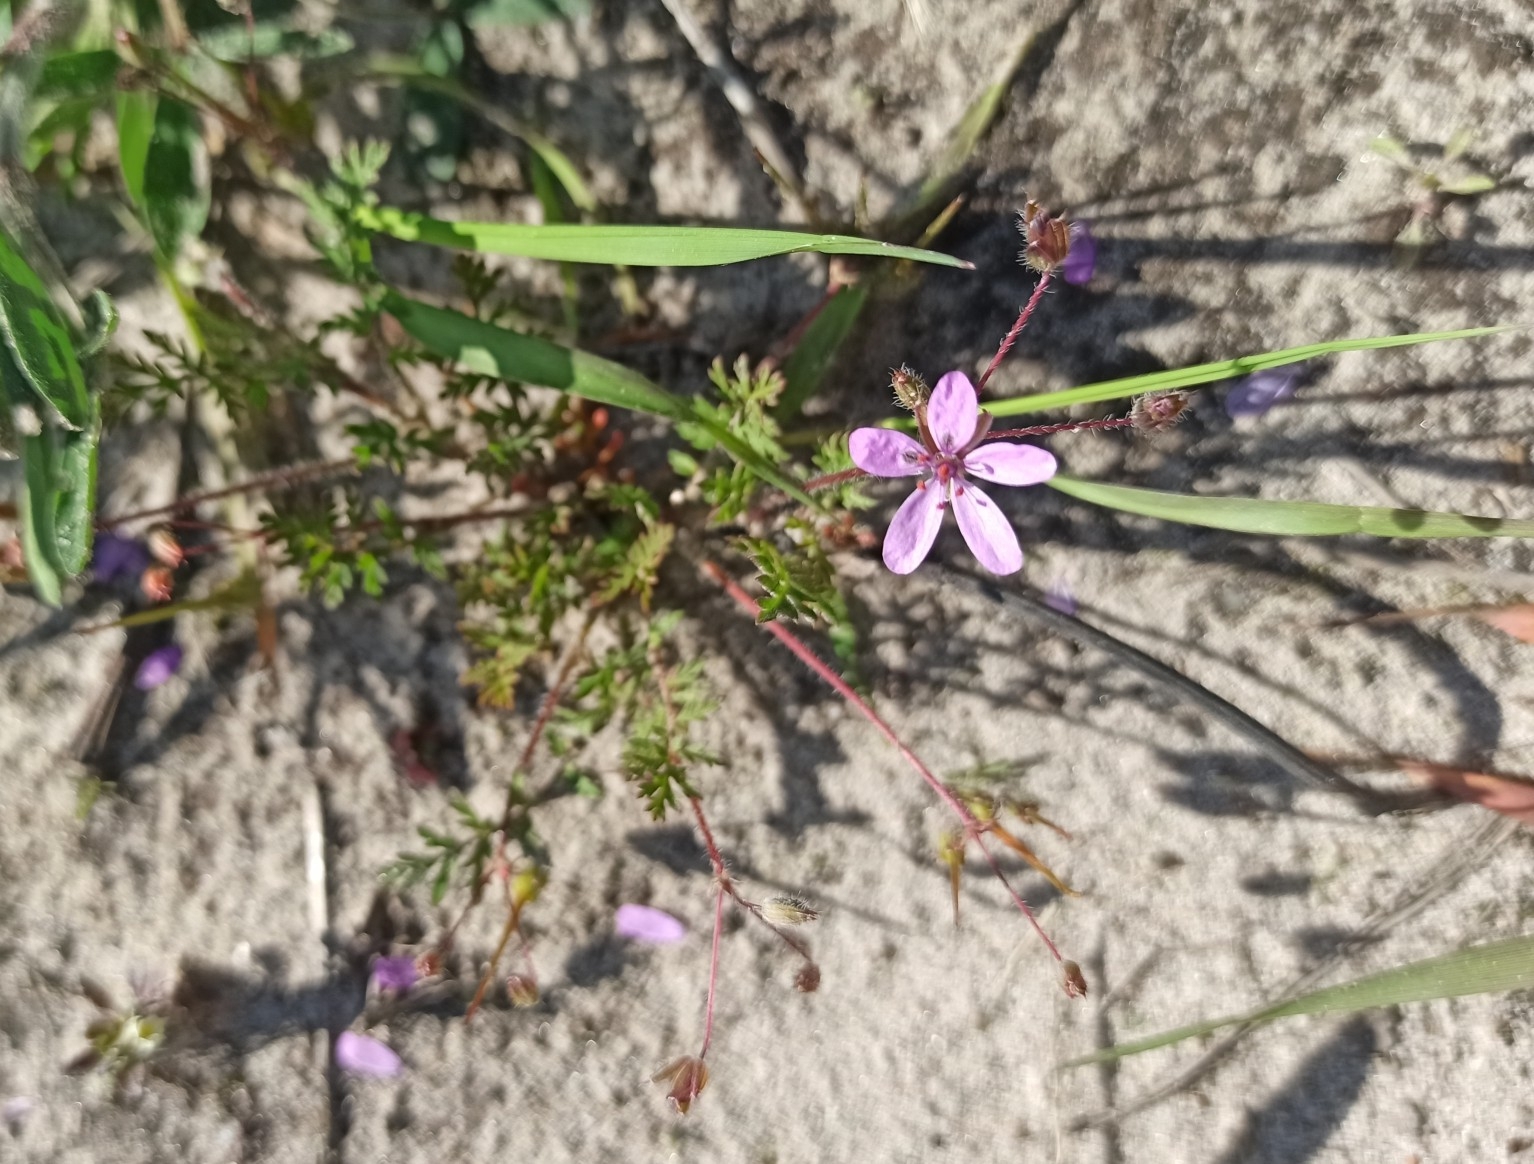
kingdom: Plantae
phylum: Tracheophyta
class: Magnoliopsida
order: Geraniales
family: Geraniaceae
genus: Erodium
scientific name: Erodium cicutarium
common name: Common stork's-bill
